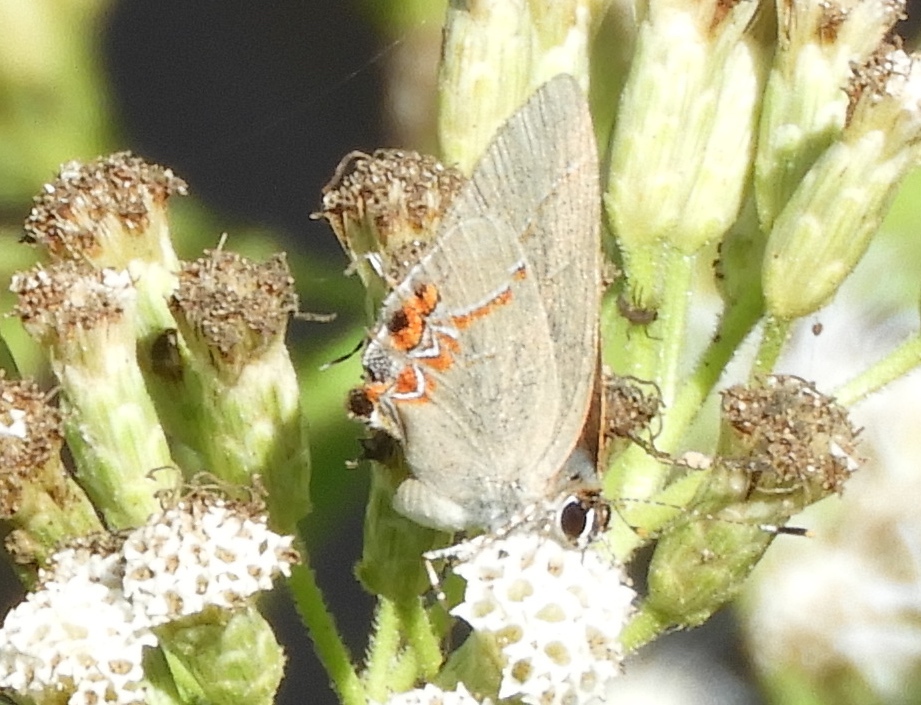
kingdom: Animalia
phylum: Arthropoda
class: Insecta
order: Lepidoptera
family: Lycaenidae
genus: Calycopis
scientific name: Calycopis
